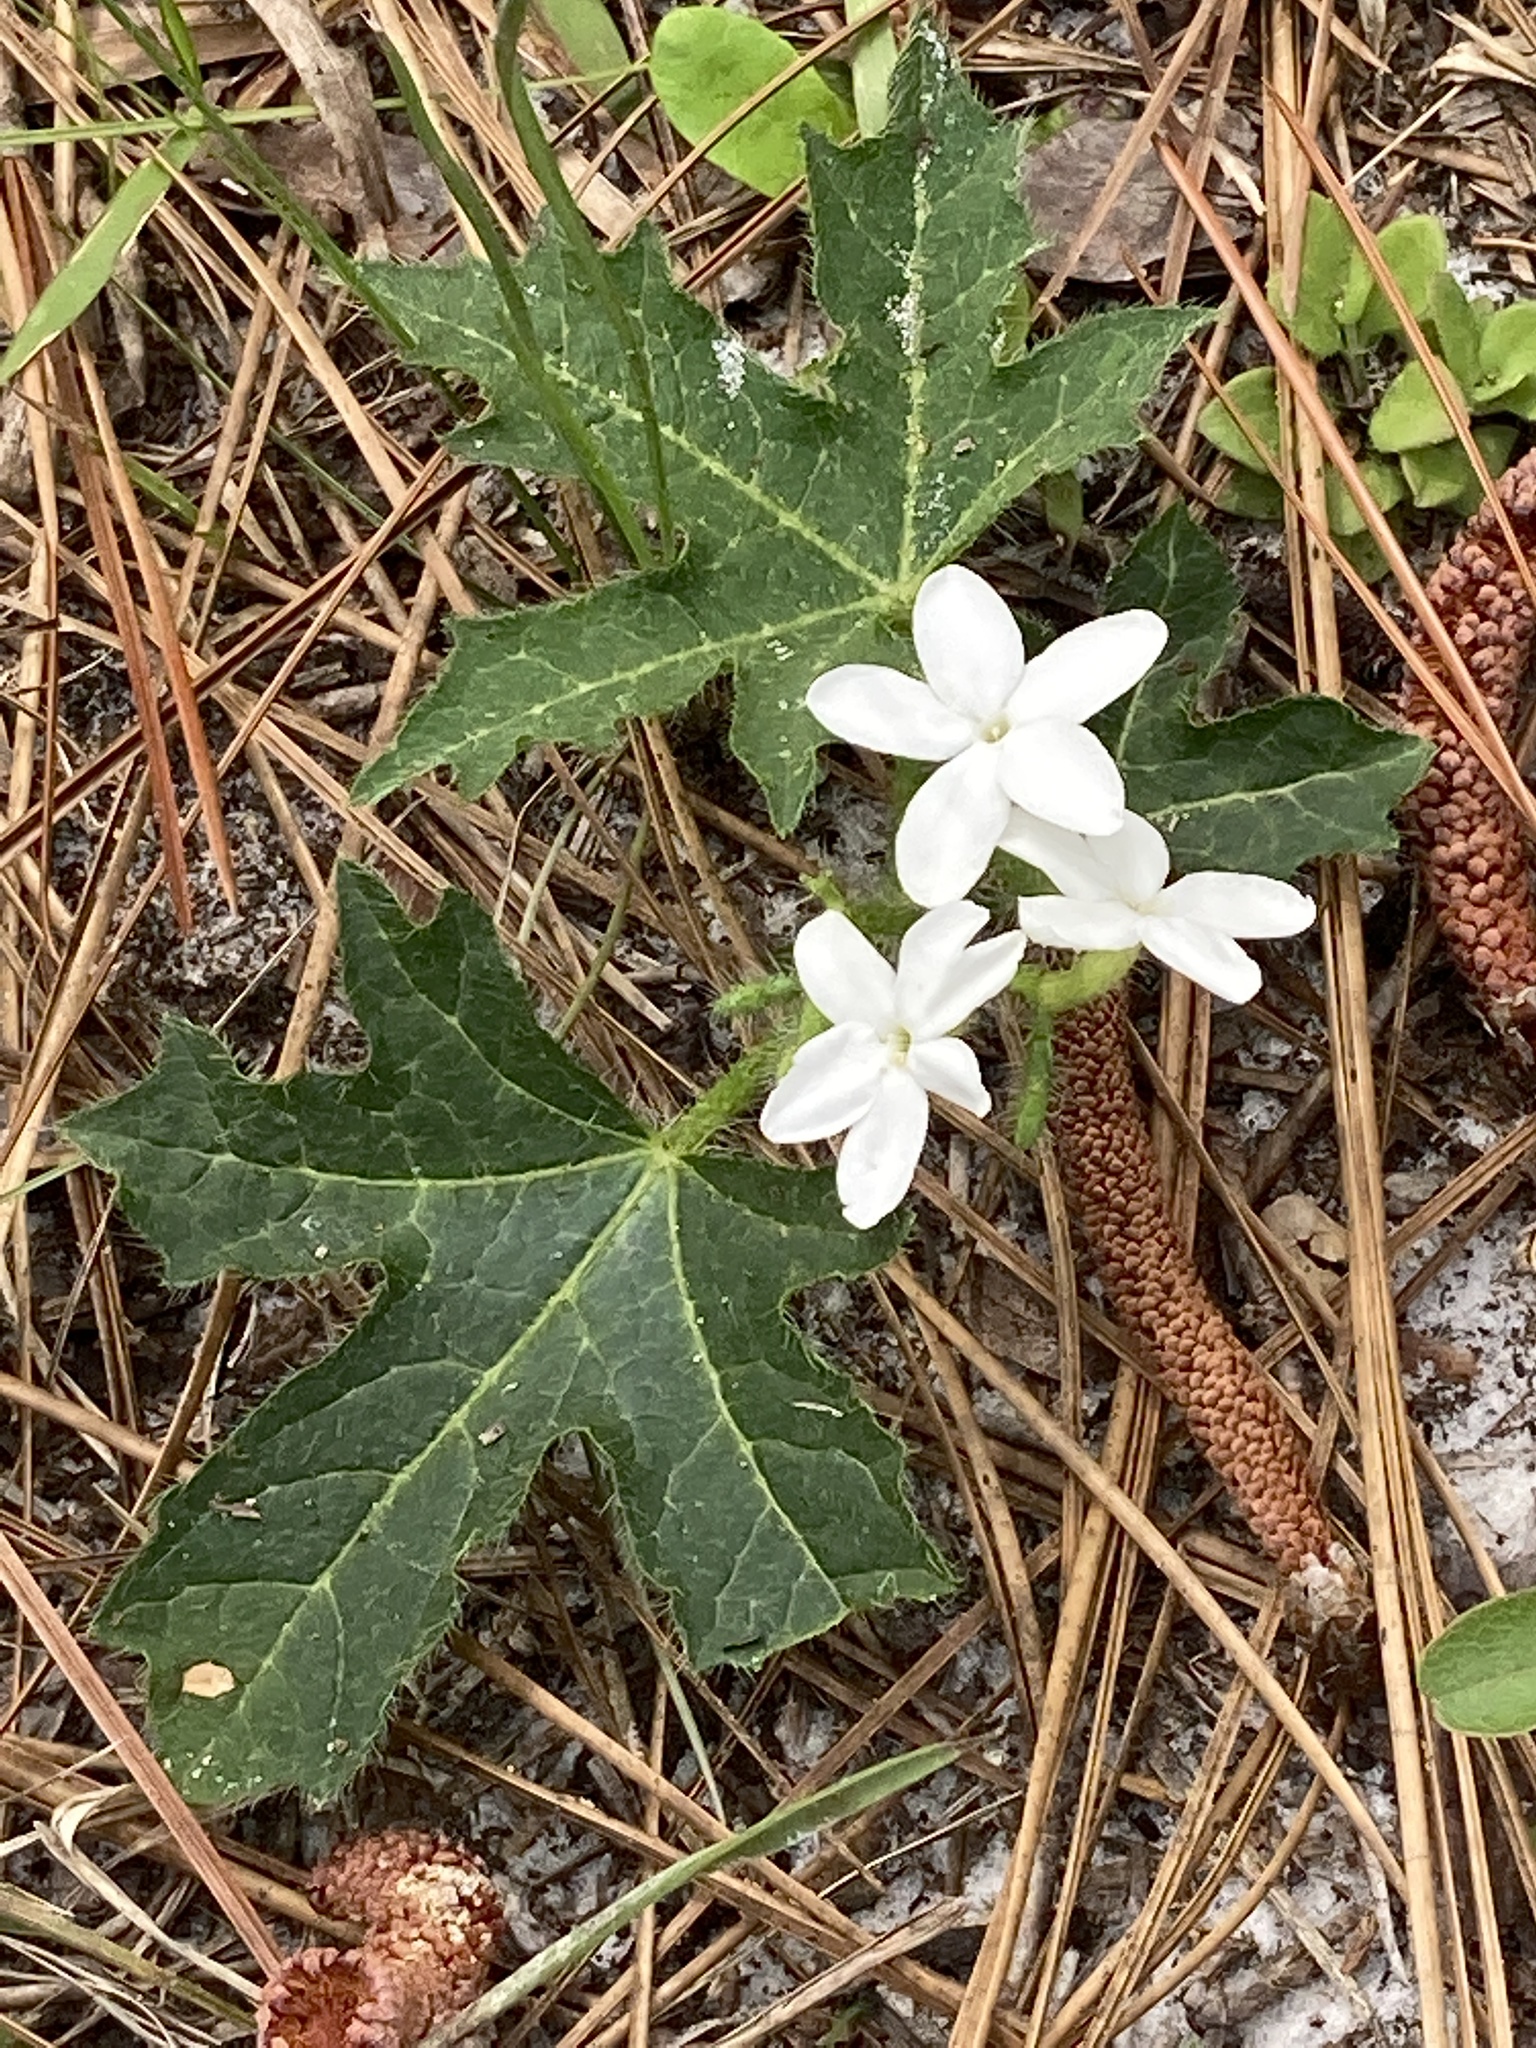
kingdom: Plantae
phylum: Tracheophyta
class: Magnoliopsida
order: Malpighiales
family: Euphorbiaceae
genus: Cnidoscolus
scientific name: Cnidoscolus stimulosus
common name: Bull-nettle
